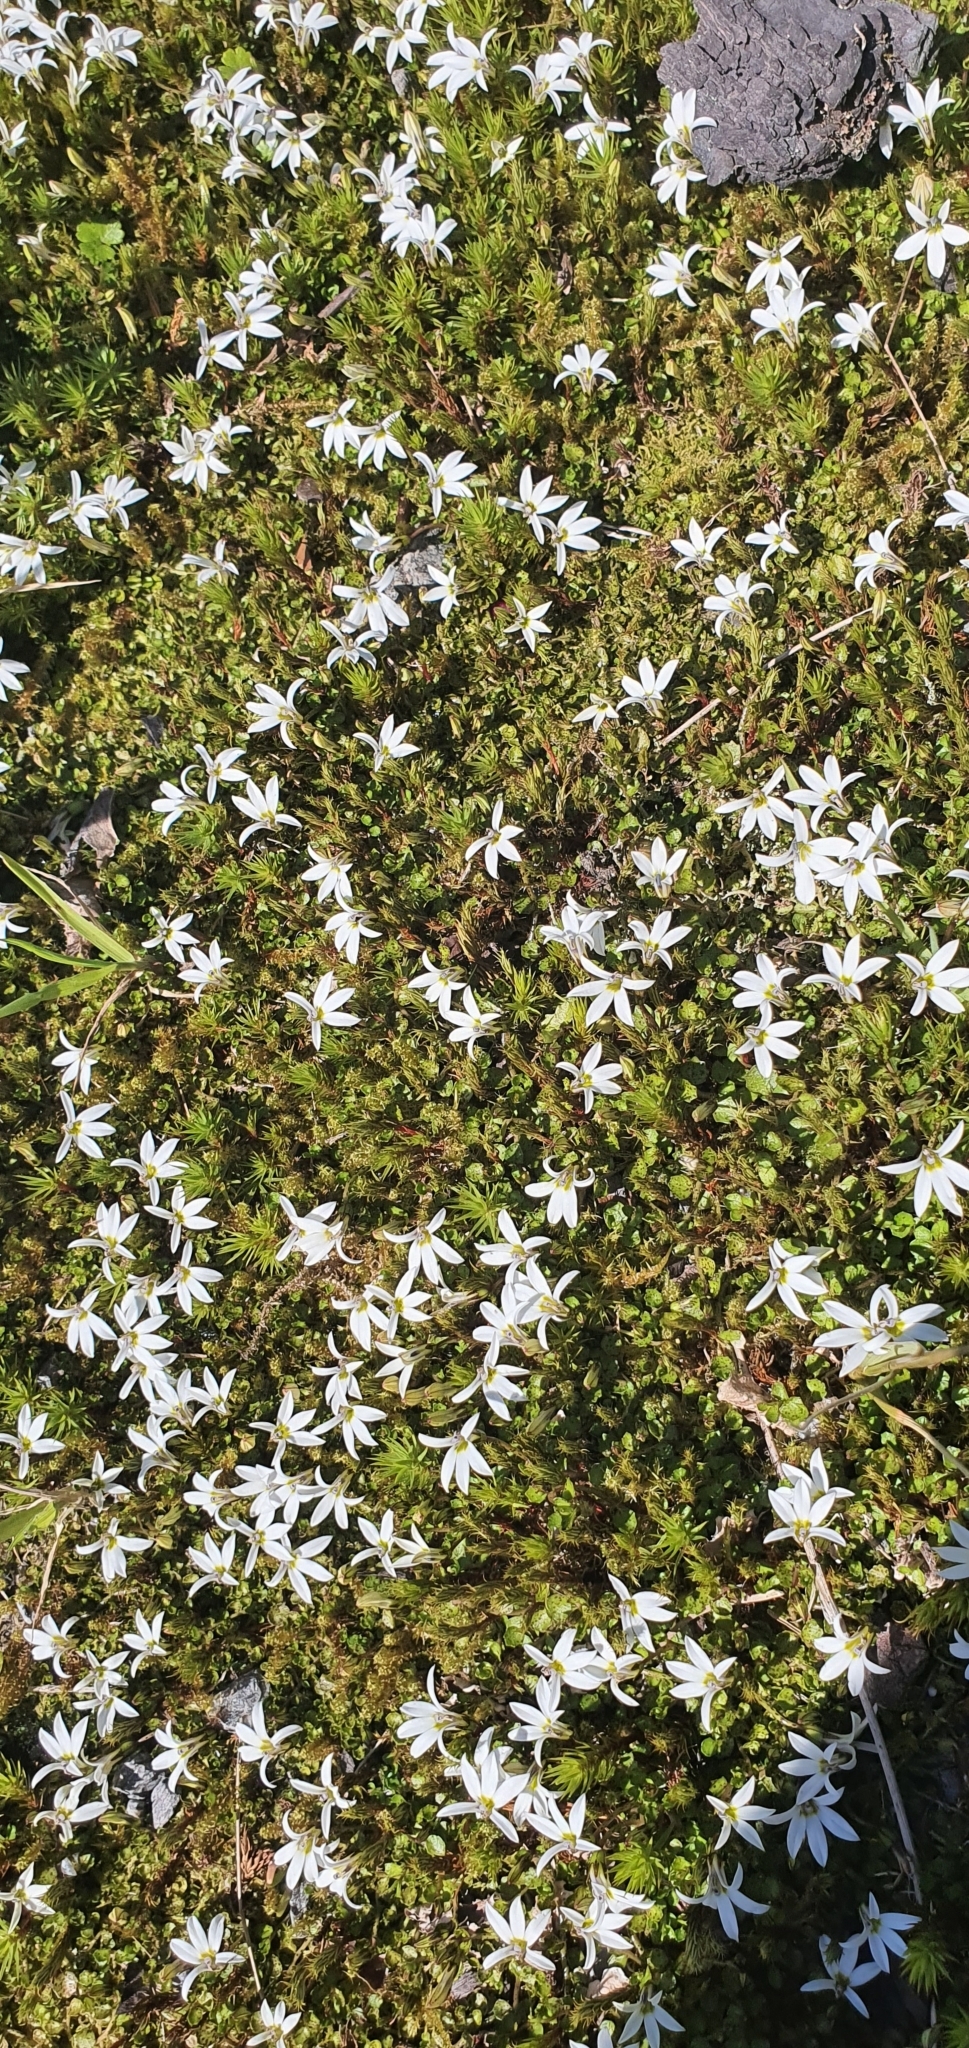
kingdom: Plantae
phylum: Tracheophyta
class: Magnoliopsida
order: Asterales
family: Campanulaceae
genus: Lobelia
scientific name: Lobelia angulata
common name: Lawn lobelia
